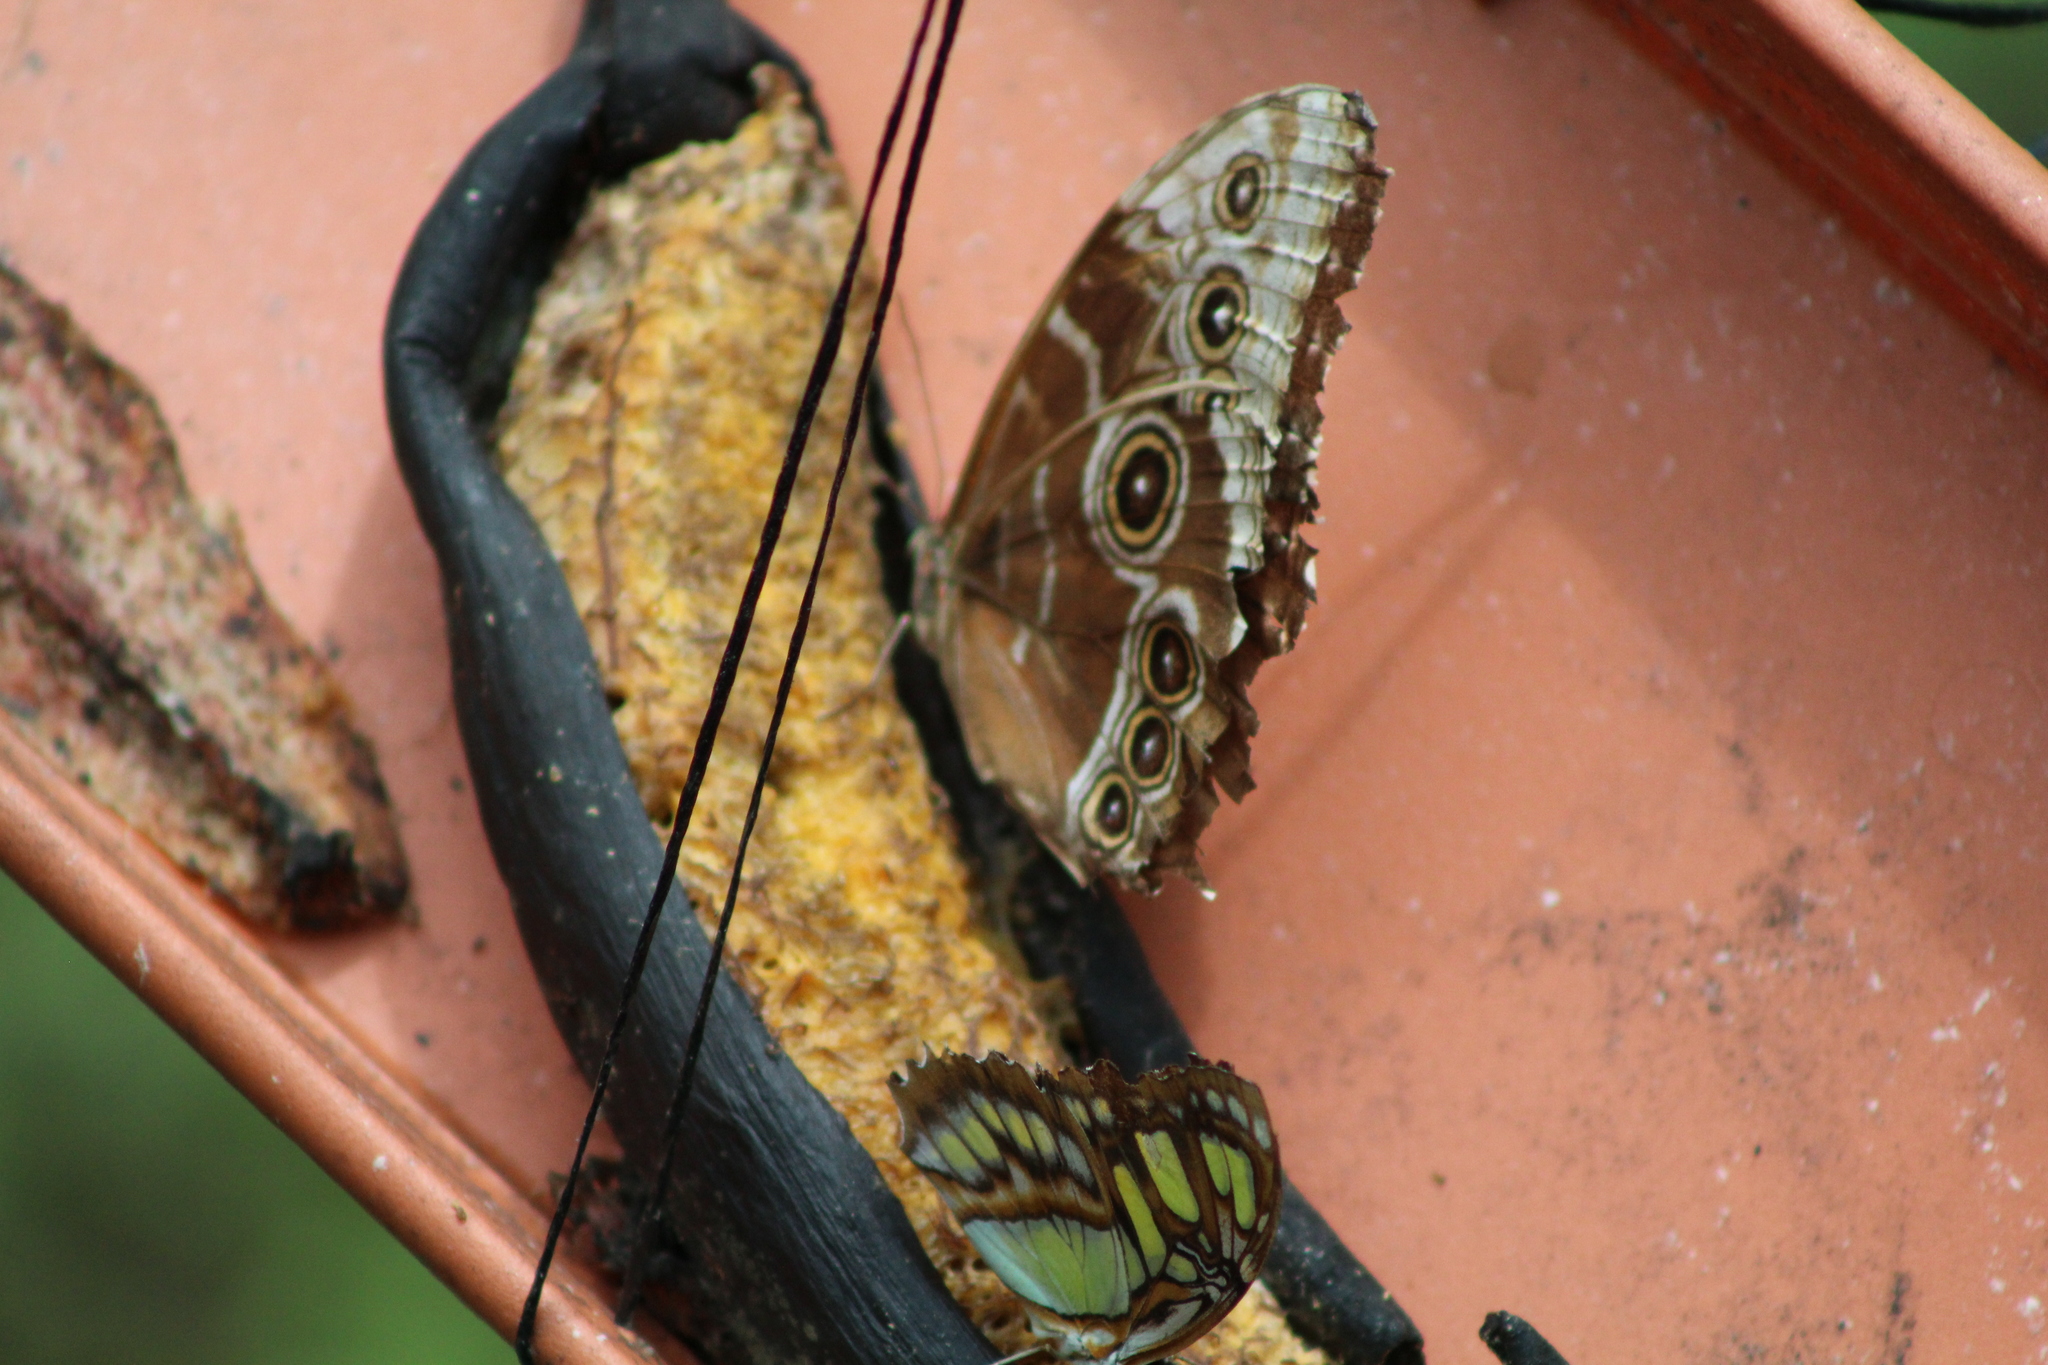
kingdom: Animalia
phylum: Arthropoda
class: Insecta
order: Lepidoptera
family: Nymphalidae
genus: Morpho
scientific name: Morpho helenor
